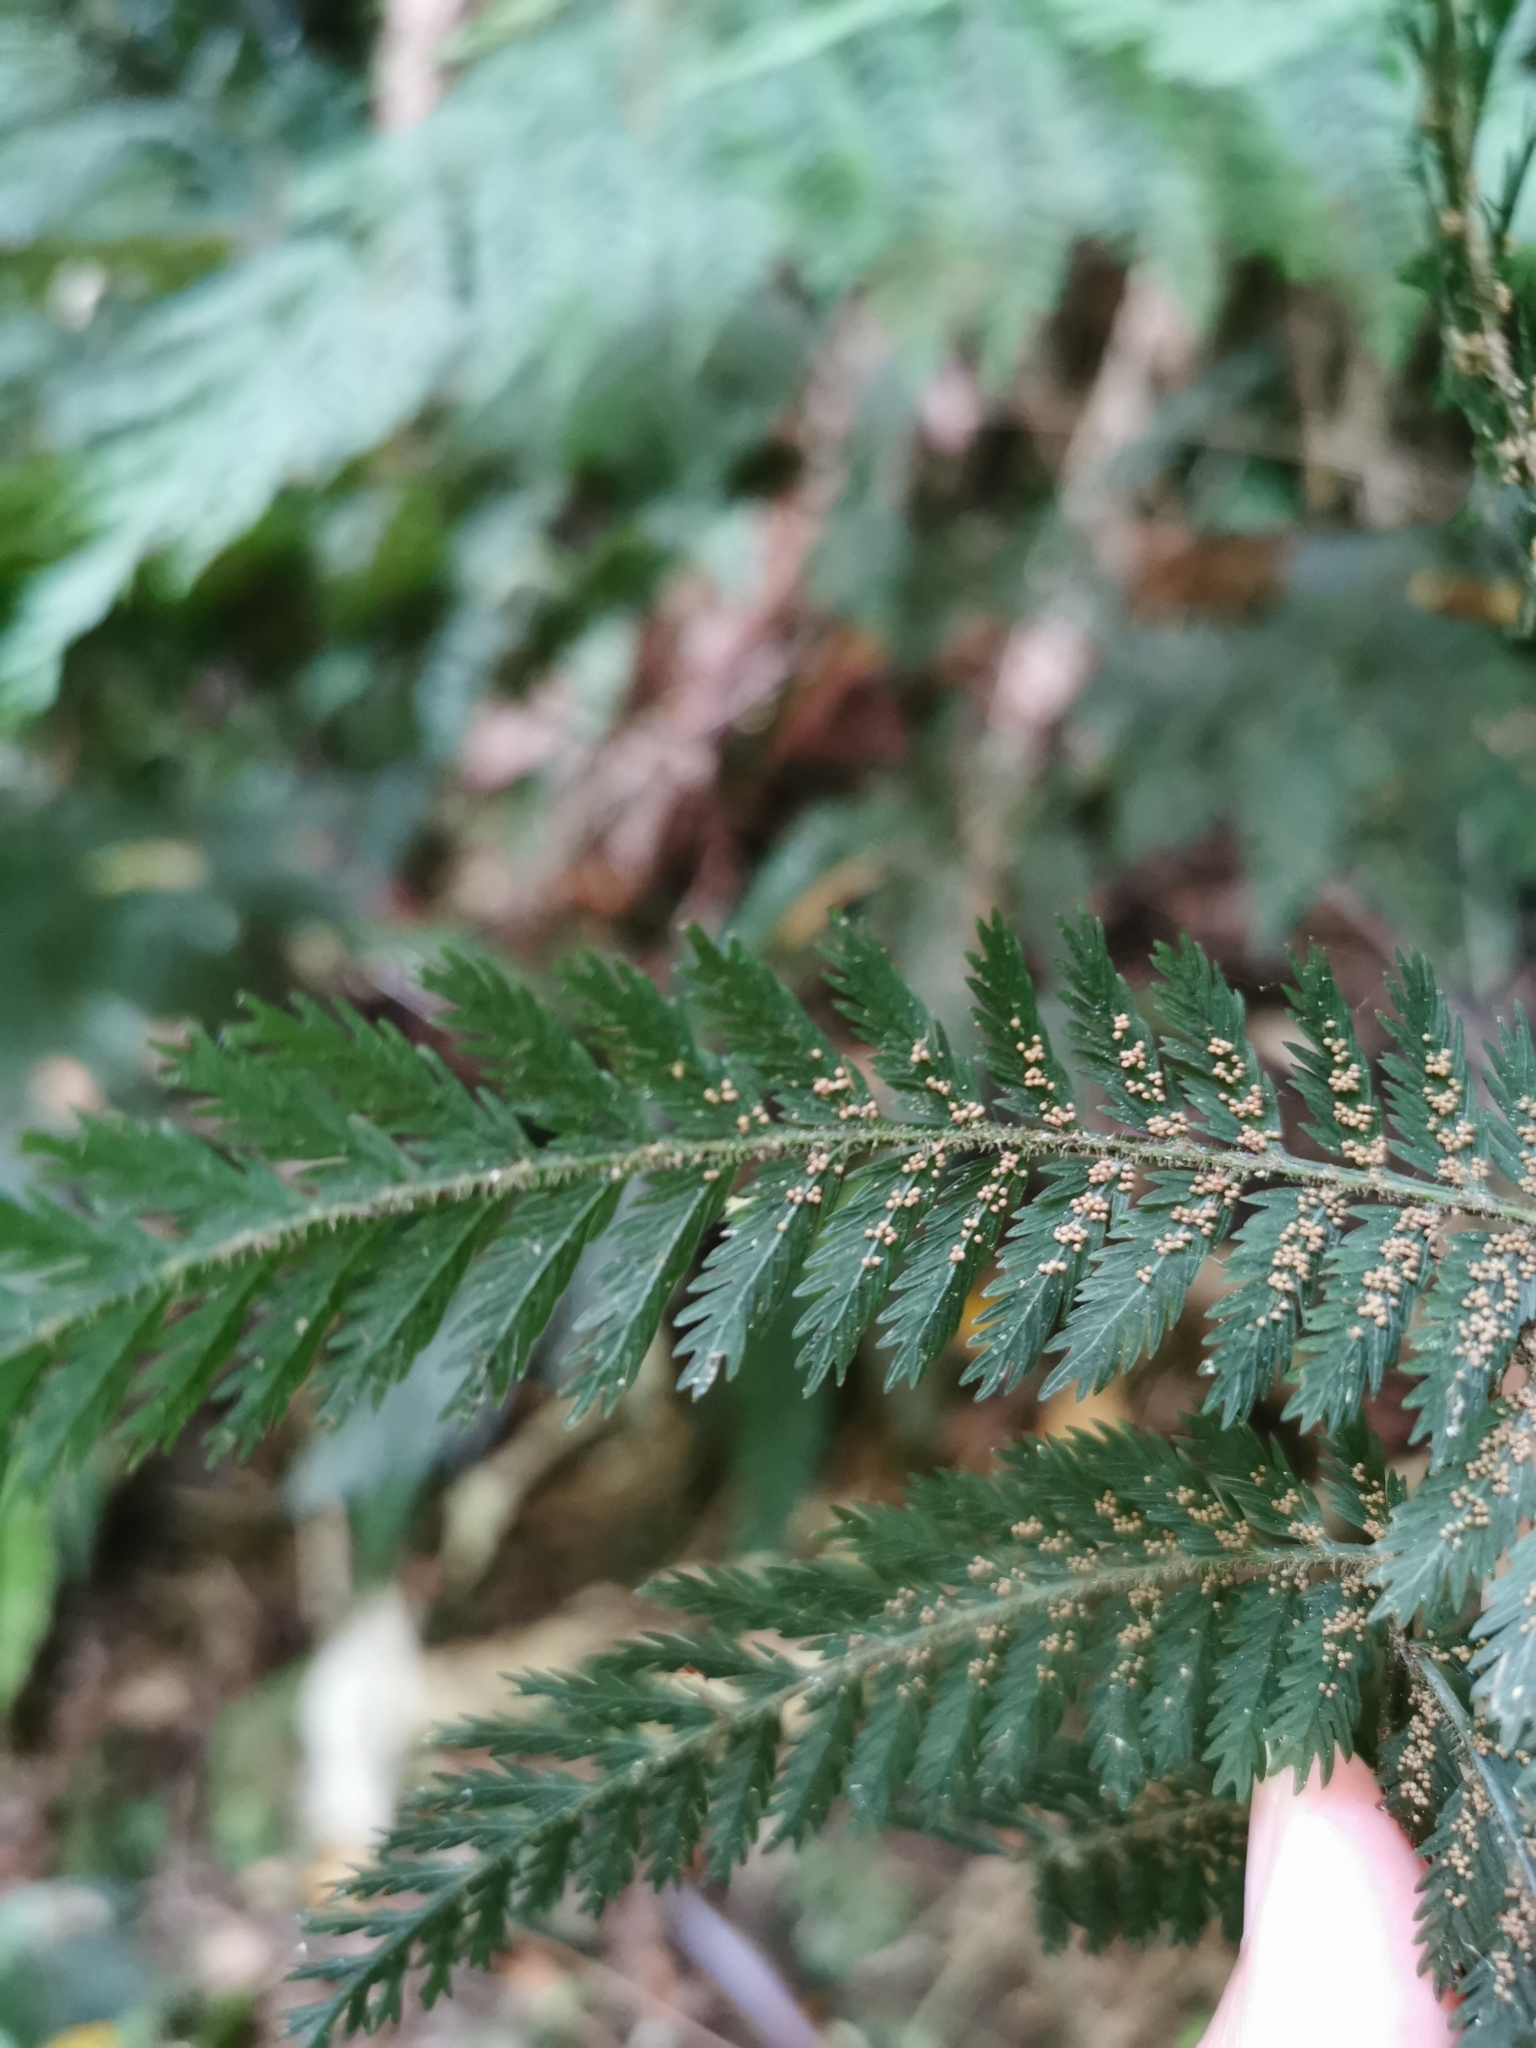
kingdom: Plantae
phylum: Tracheophyta
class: Polypodiopsida
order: Osmundales
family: Osmundaceae
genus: Leptopteris
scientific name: Leptopteris hymenophylloides
